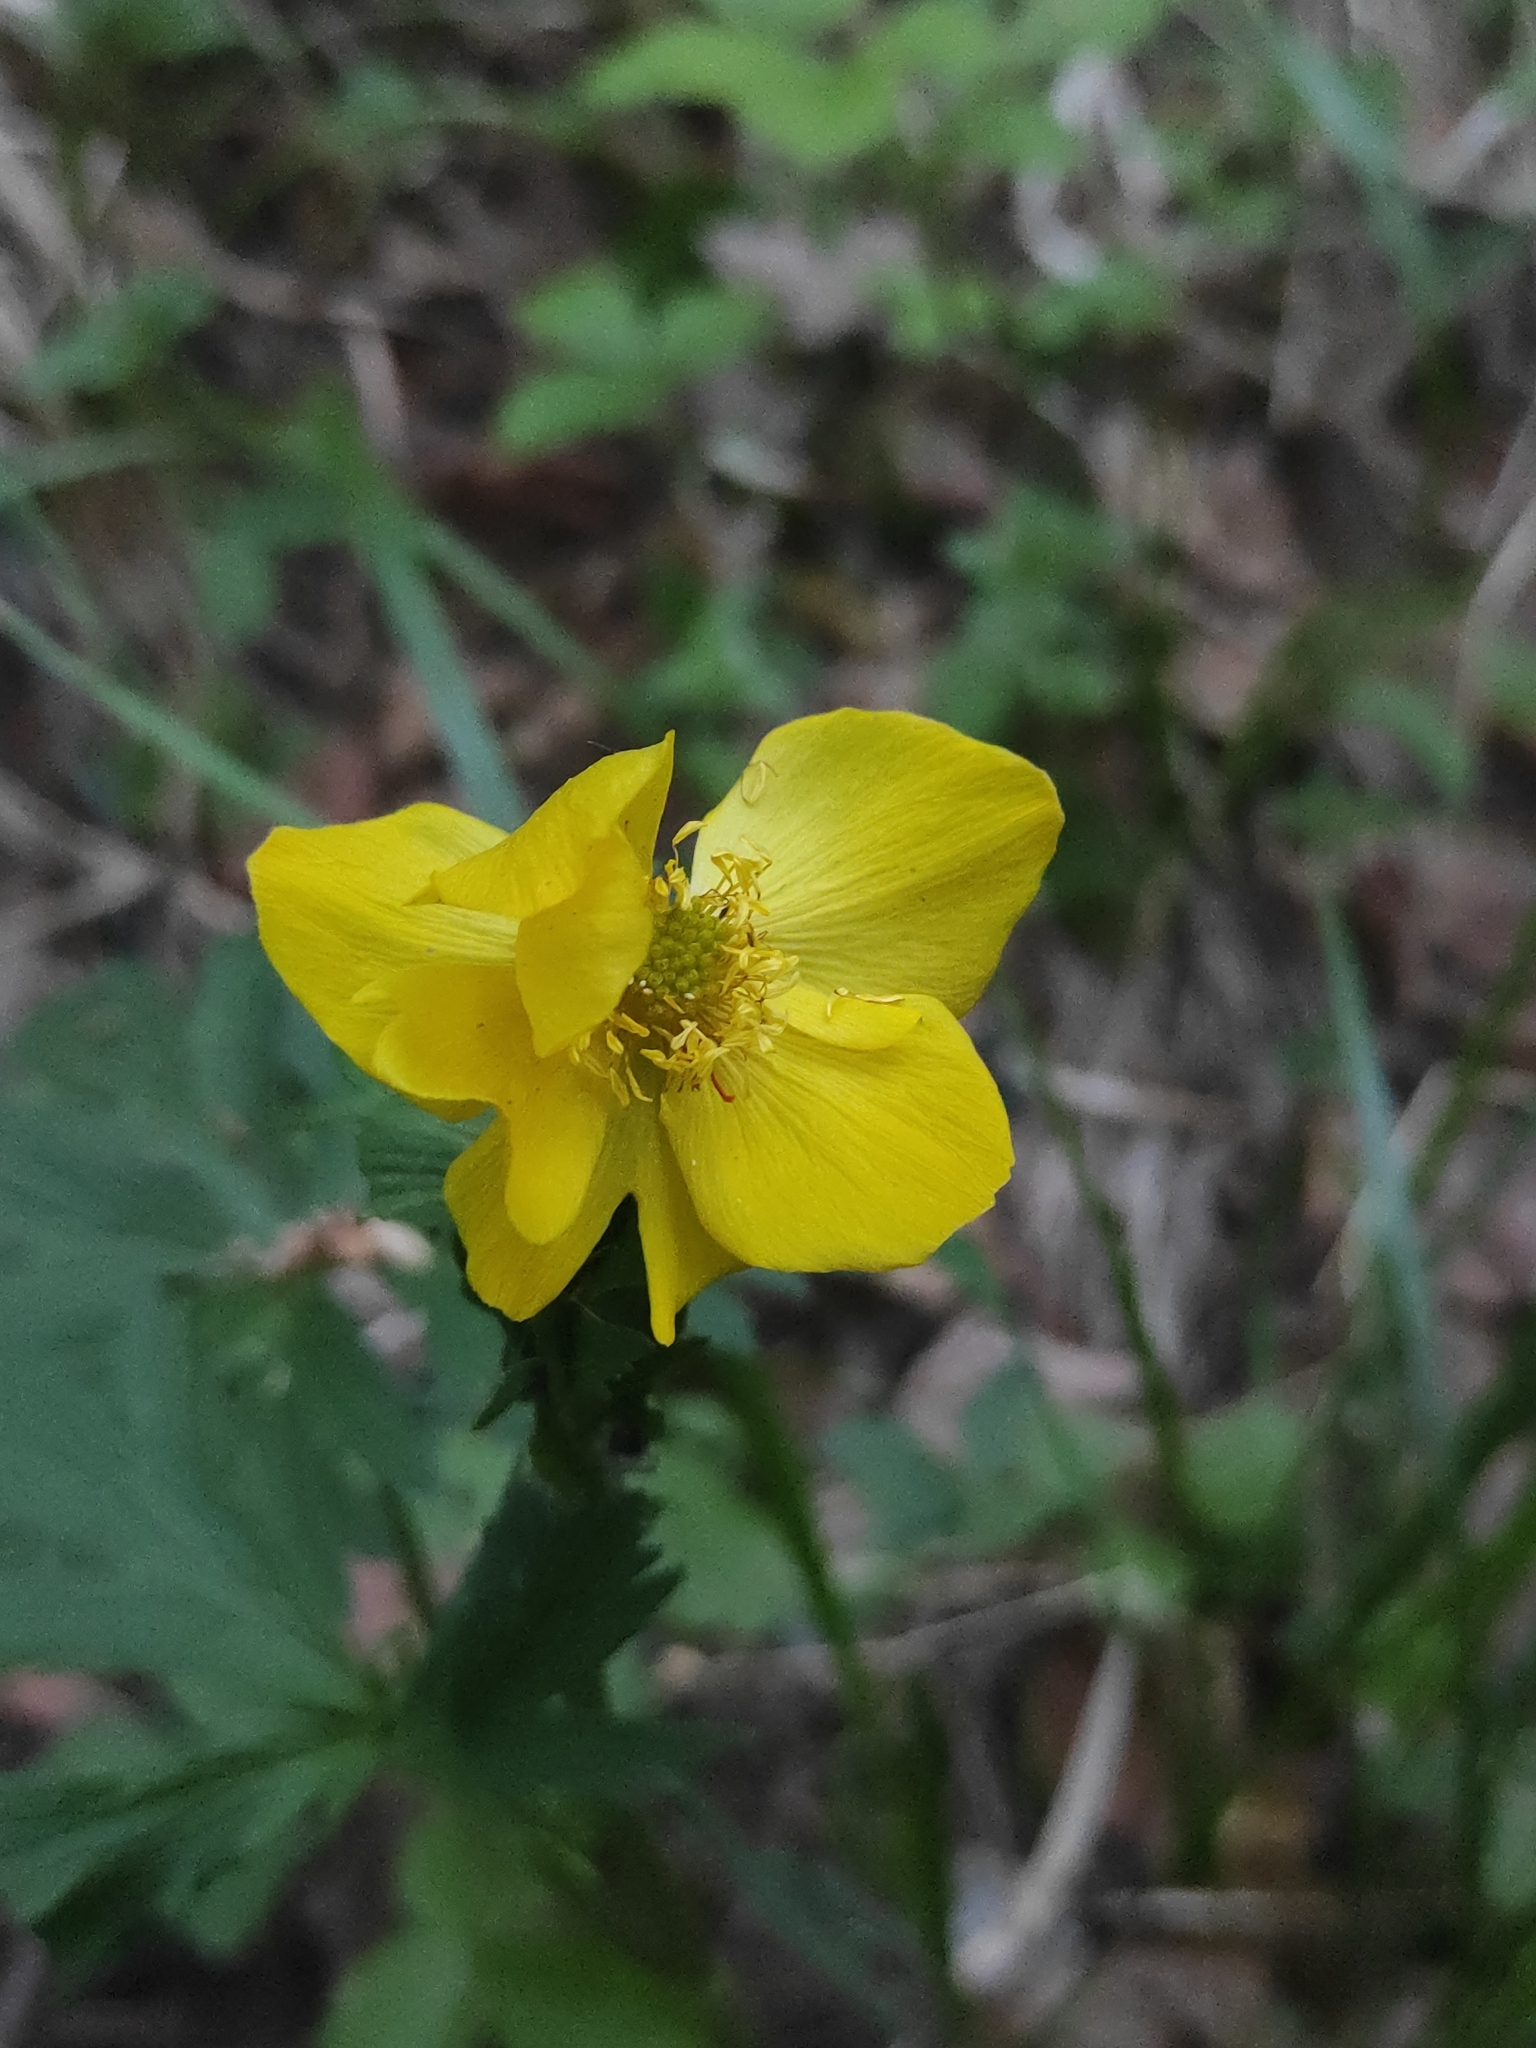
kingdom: Plantae
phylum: Tracheophyta
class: Magnoliopsida
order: Ranunculales
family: Ranunculaceae
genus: Trollius
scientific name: Trollius europaeus
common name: European globeflower
